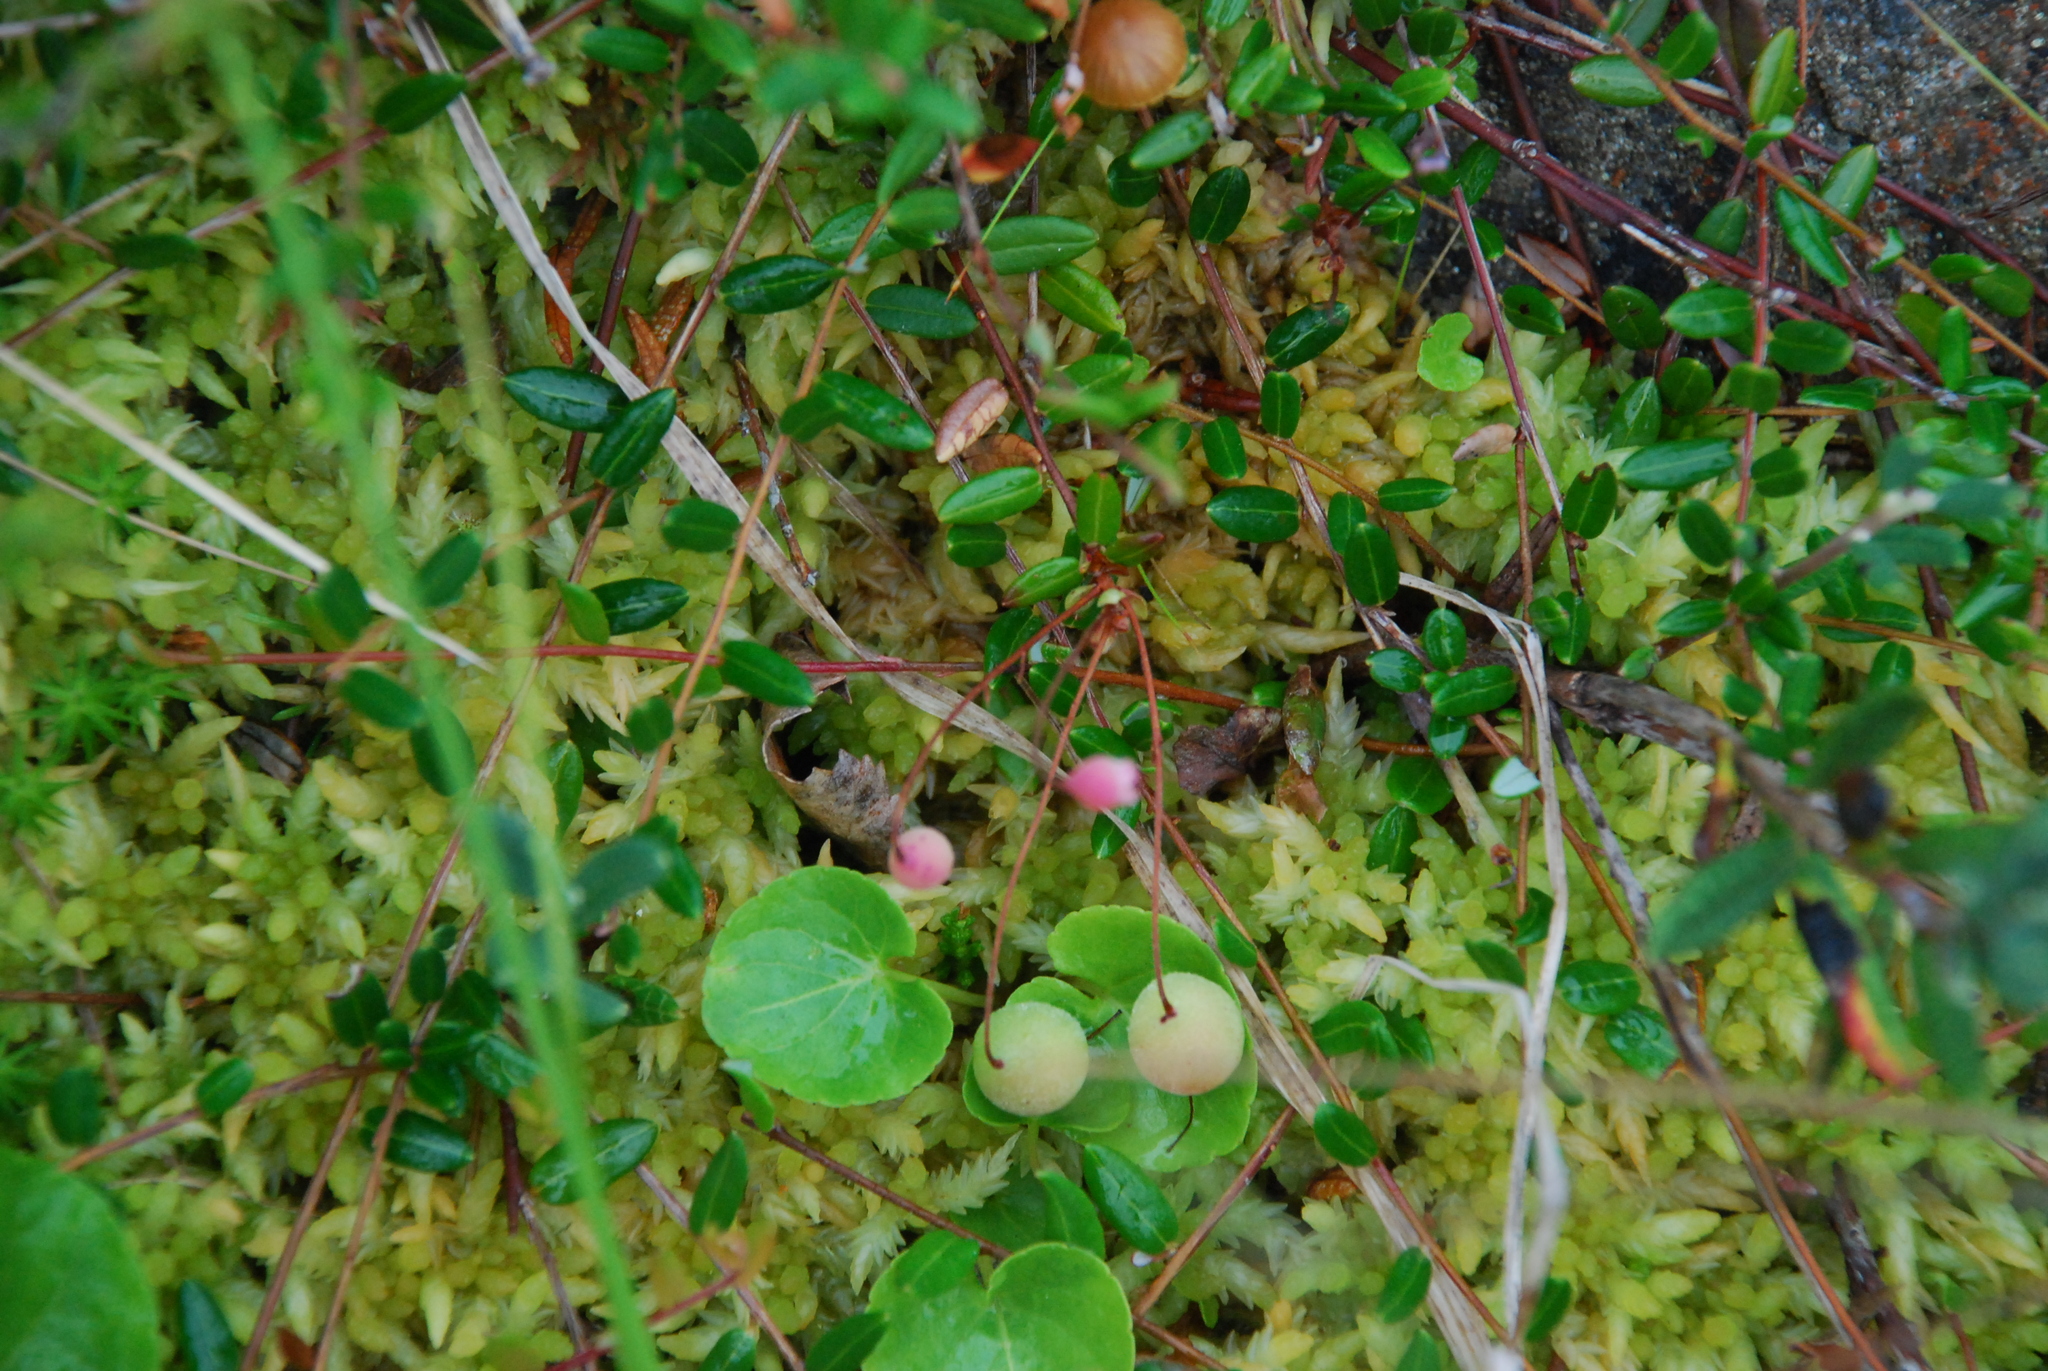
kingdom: Plantae
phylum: Tracheophyta
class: Magnoliopsida
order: Ericales
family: Ericaceae
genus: Vaccinium
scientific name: Vaccinium oxycoccos
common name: Cranberry
